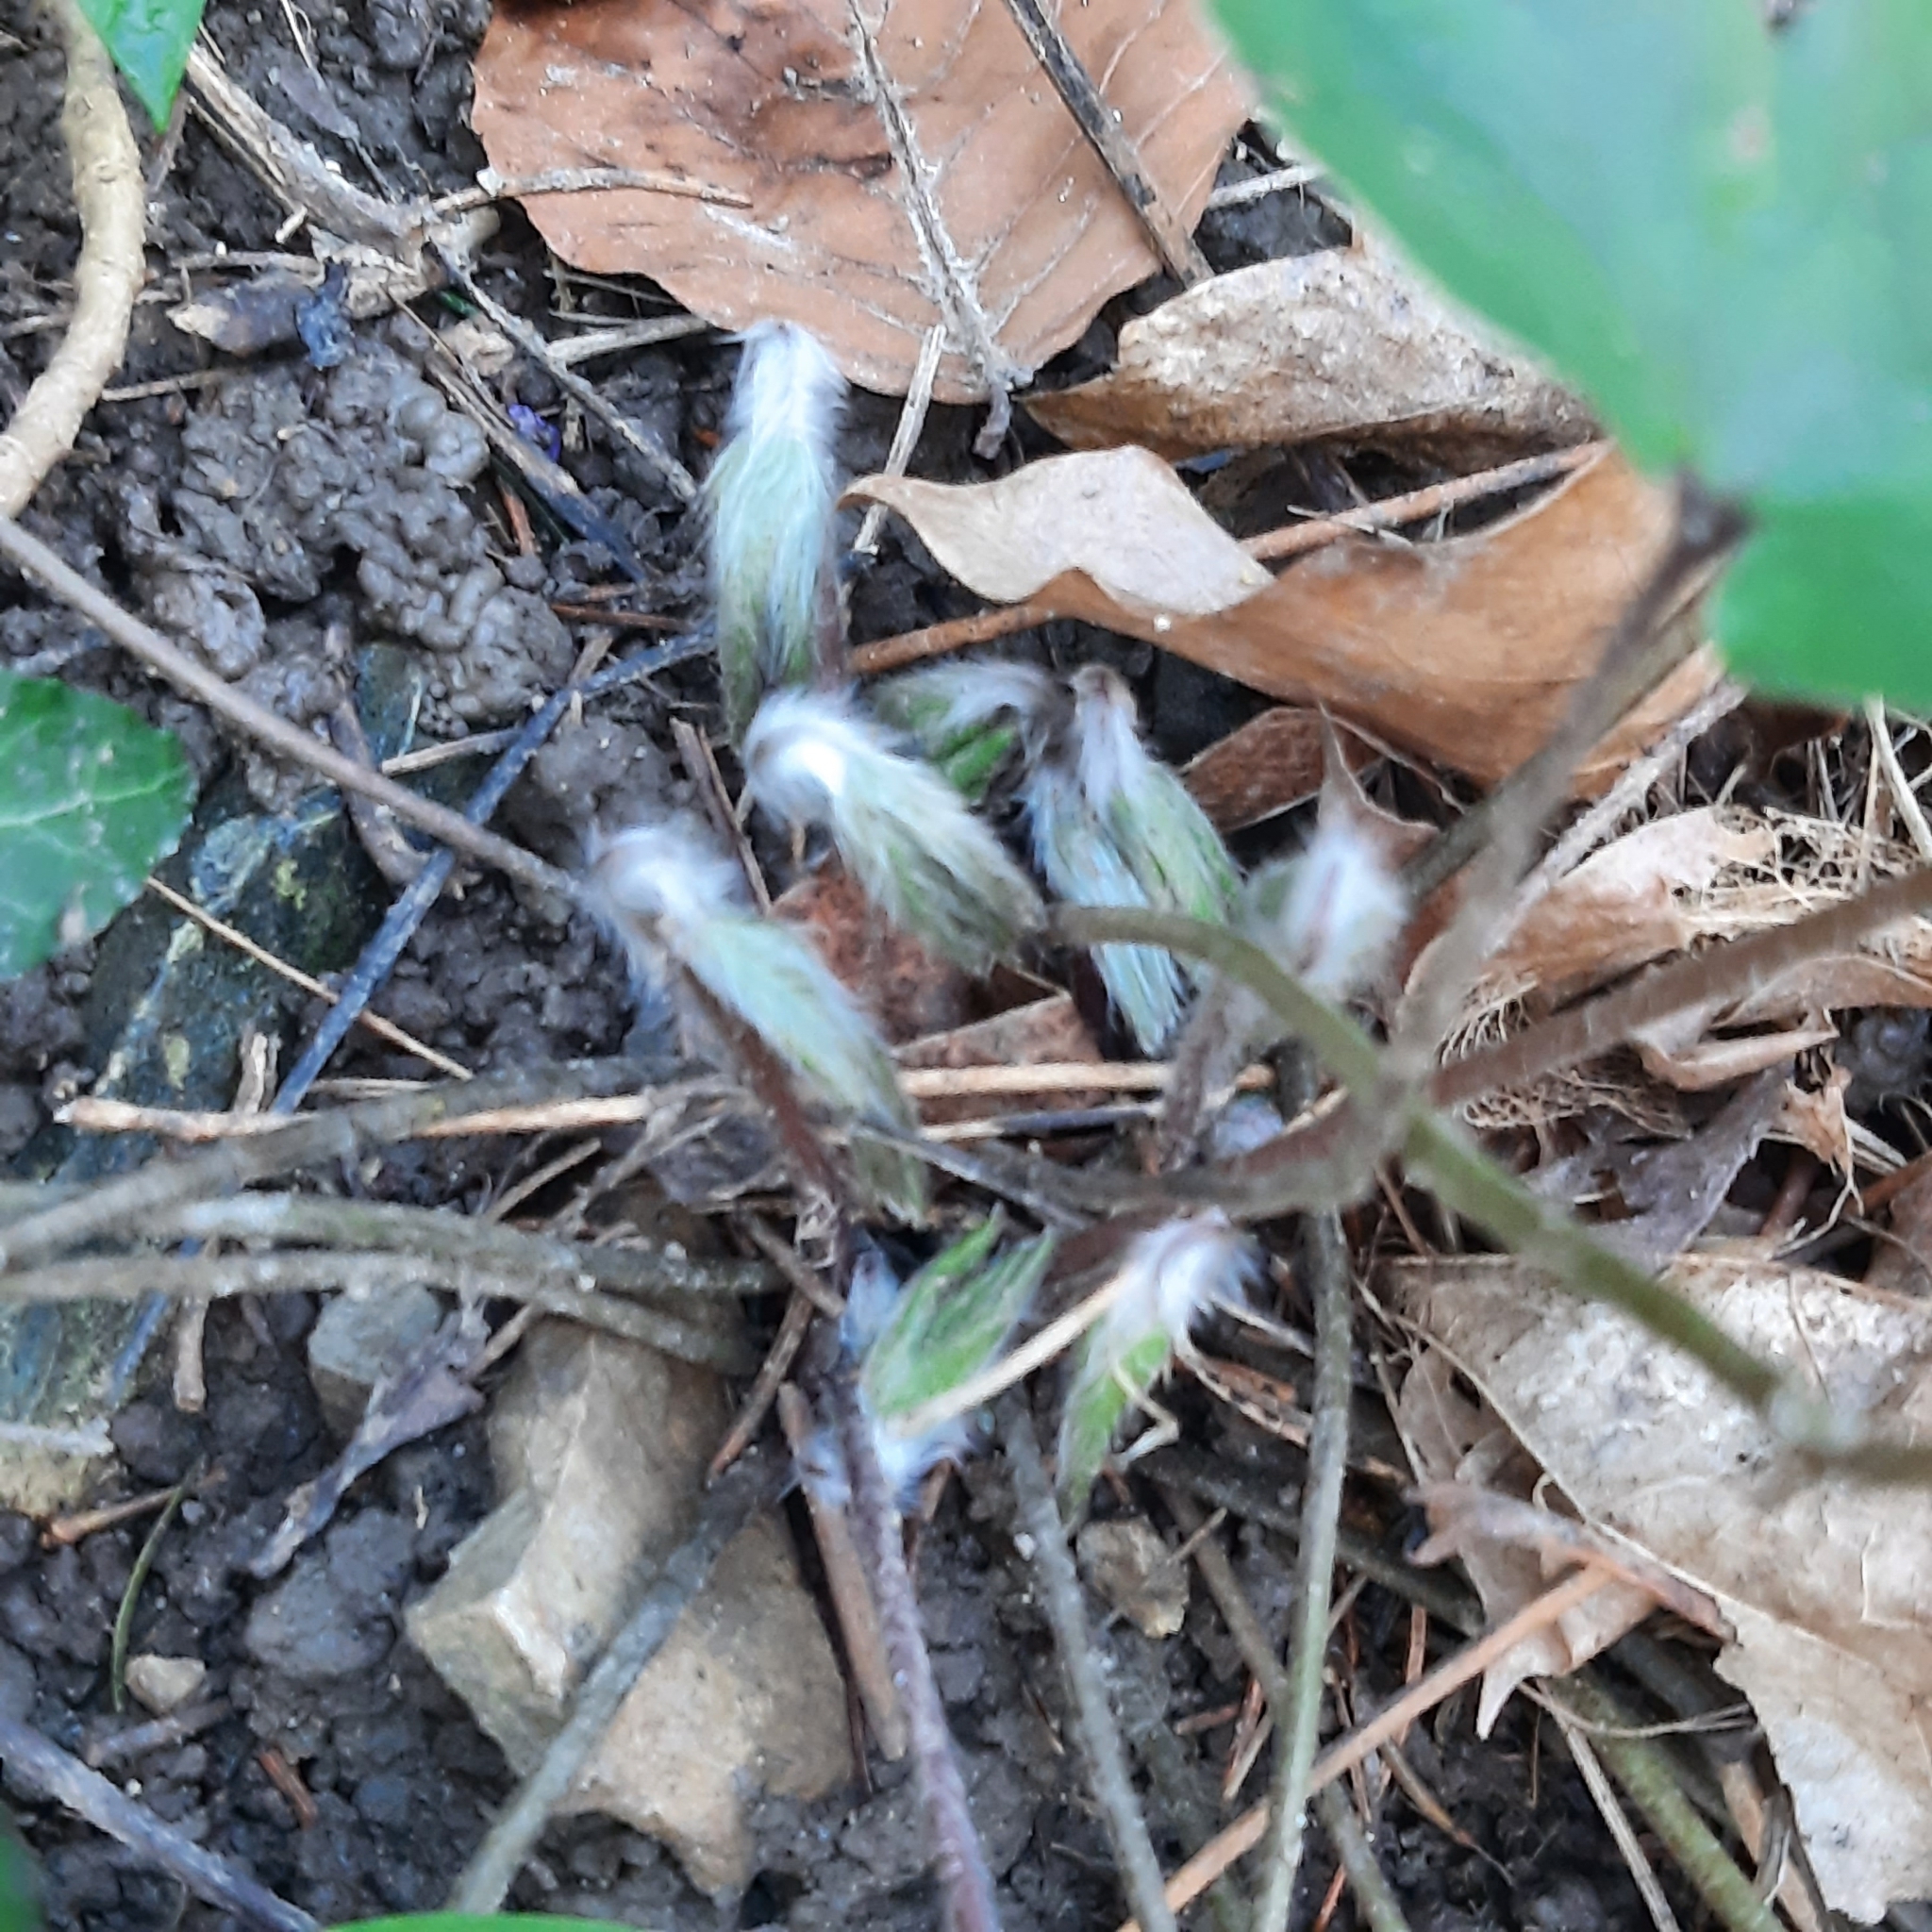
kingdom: Plantae
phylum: Tracheophyta
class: Magnoliopsida
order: Ranunculales
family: Ranunculaceae
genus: Hepatica
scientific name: Hepatica nobilis
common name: Liverleaf
